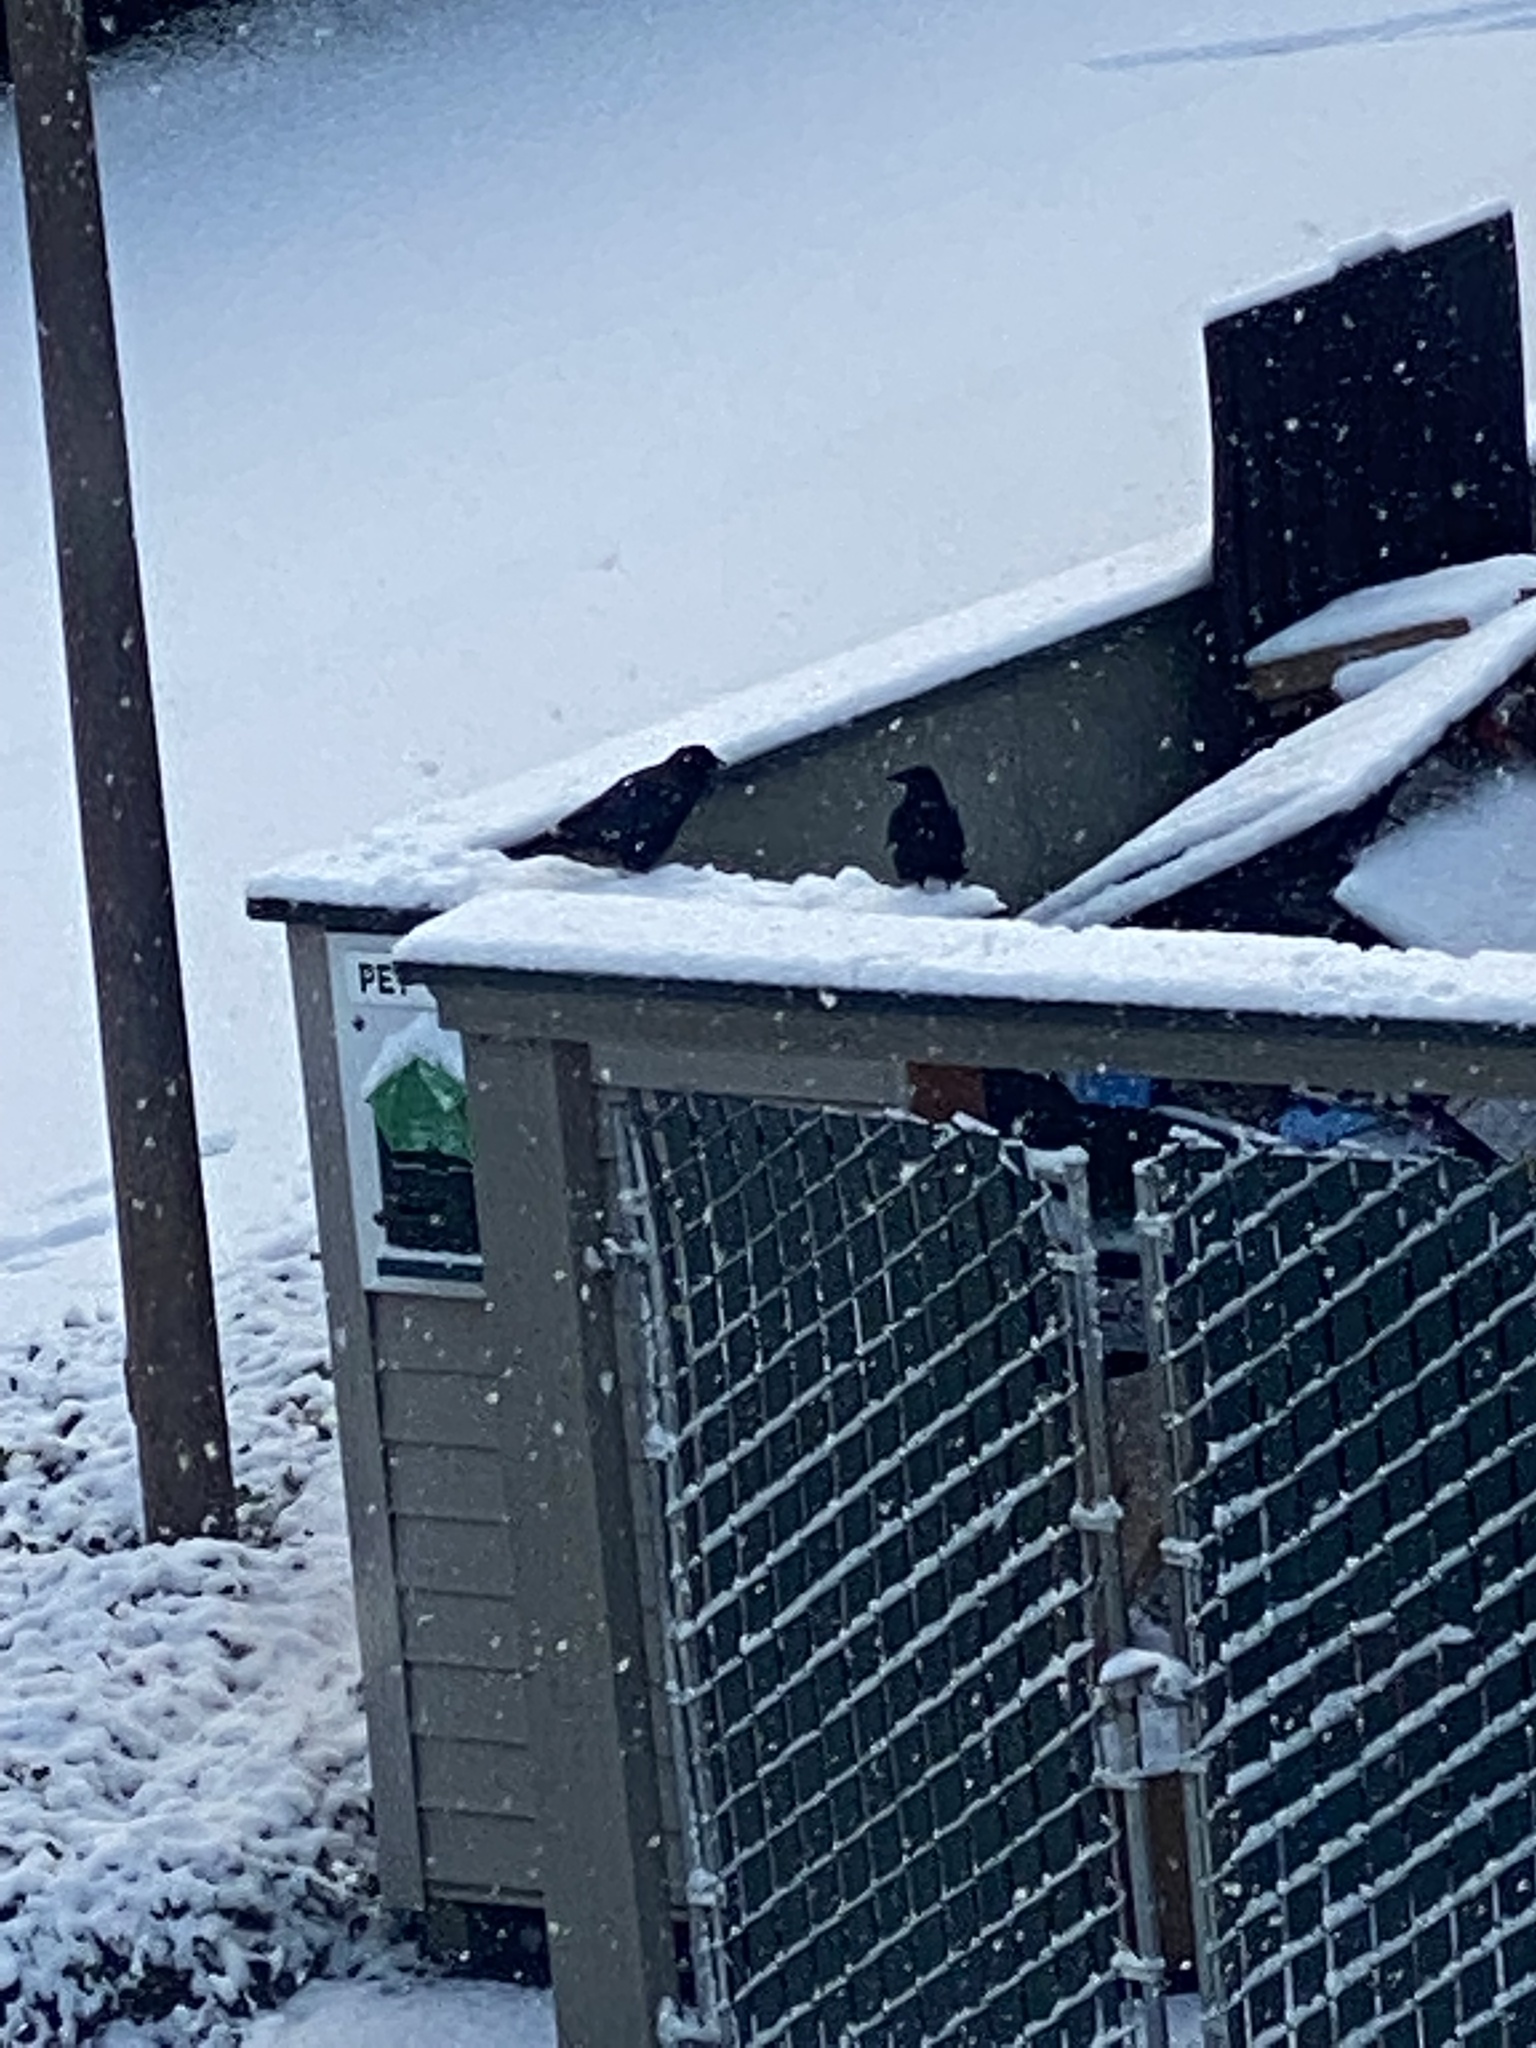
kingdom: Animalia
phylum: Chordata
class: Aves
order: Passeriformes
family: Corvidae
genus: Corvus
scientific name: Corvus brachyrhynchos
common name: American crow
